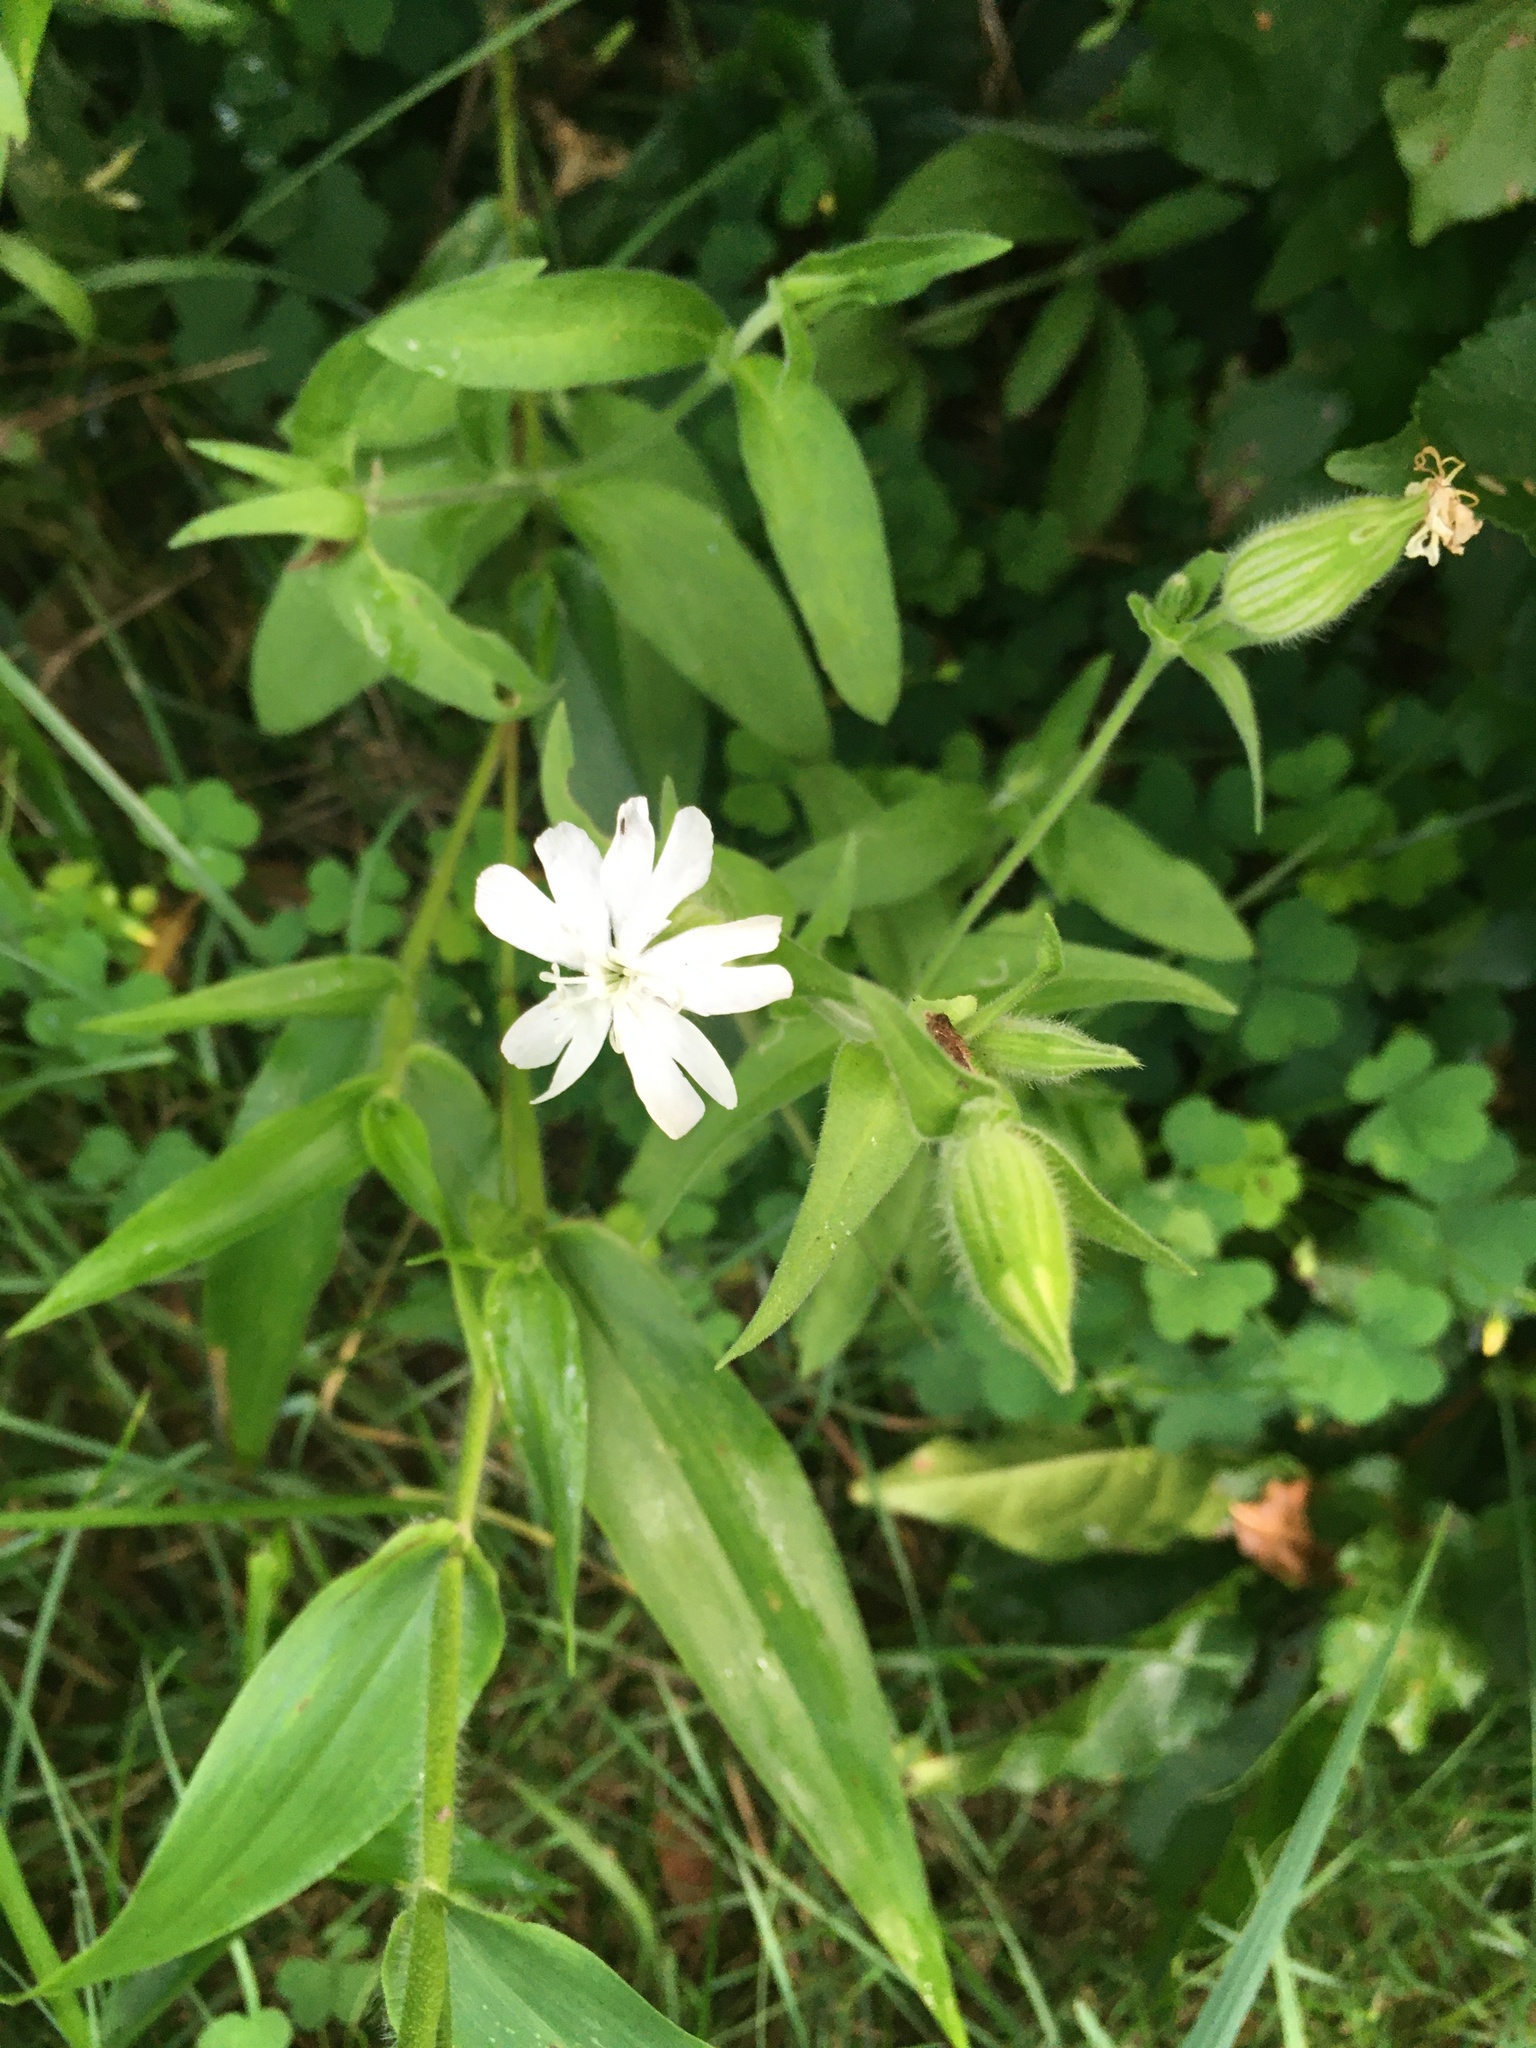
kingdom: Plantae
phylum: Tracheophyta
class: Magnoliopsida
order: Caryophyllales
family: Caryophyllaceae
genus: Silene
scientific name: Silene latifolia
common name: White campion
